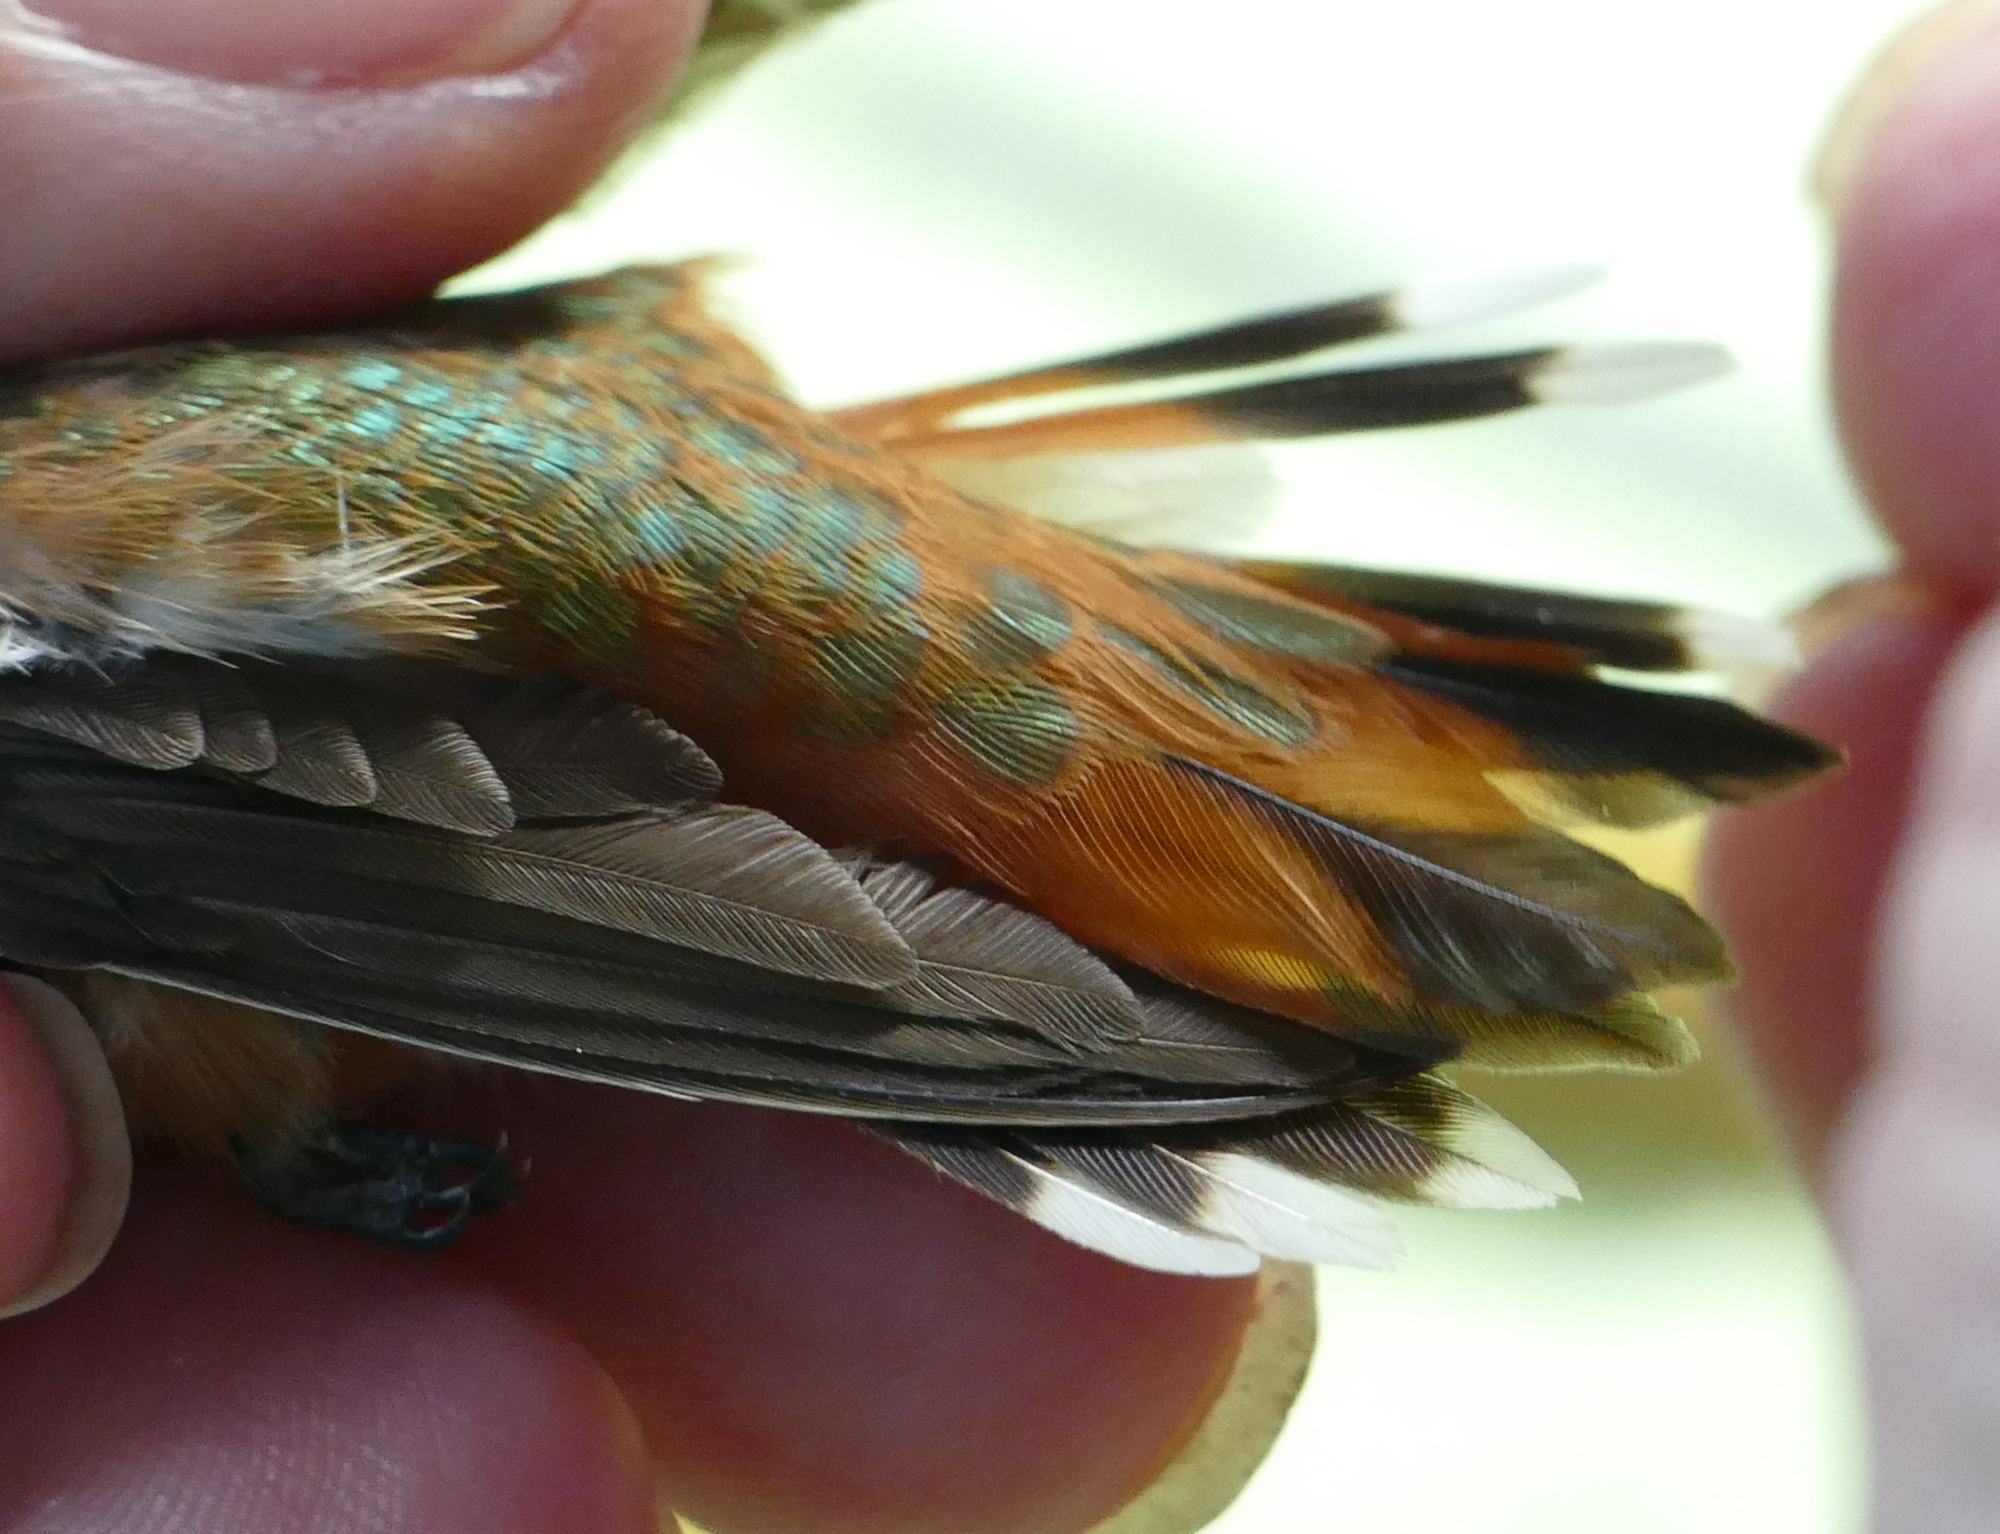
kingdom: Animalia
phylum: Chordata
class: Aves
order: Apodiformes
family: Trochilidae
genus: Selasphorus
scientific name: Selasphorus rufus
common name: Rufous hummingbird
